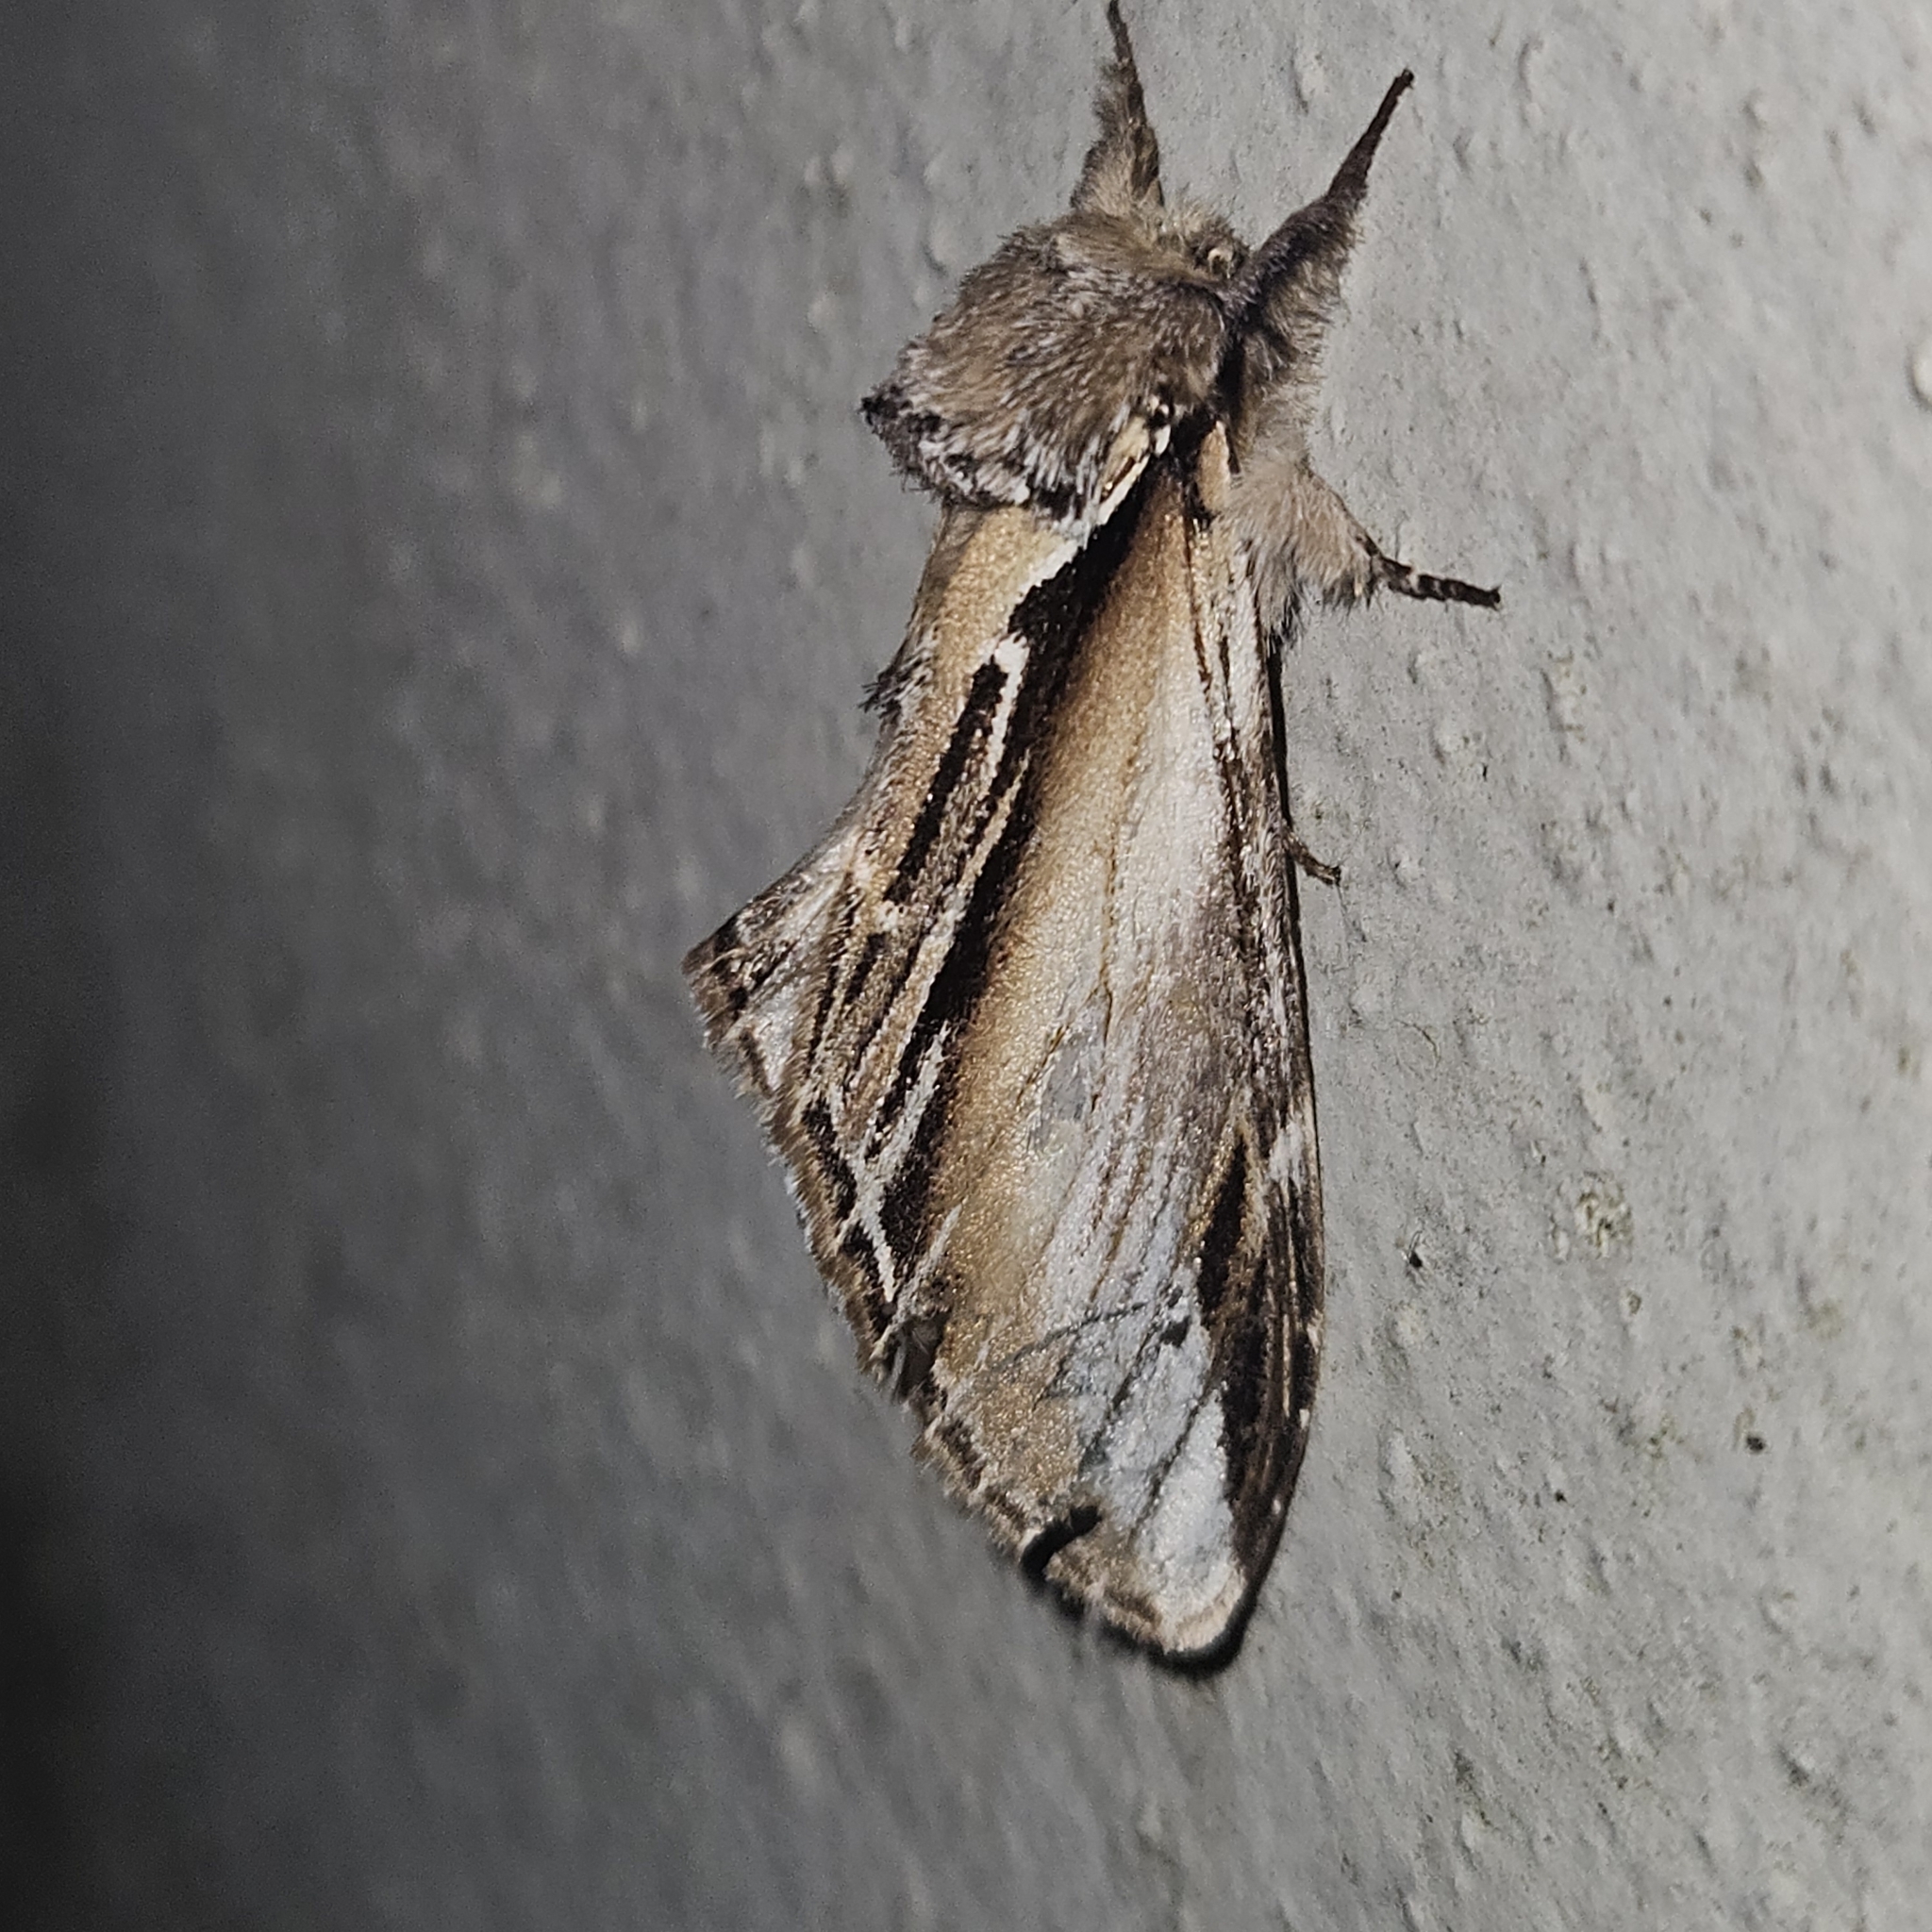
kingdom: Animalia
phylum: Arthropoda
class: Insecta
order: Lepidoptera
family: Notodontidae
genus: Pheosia
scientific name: Pheosia tremula
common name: Swallow prominent
